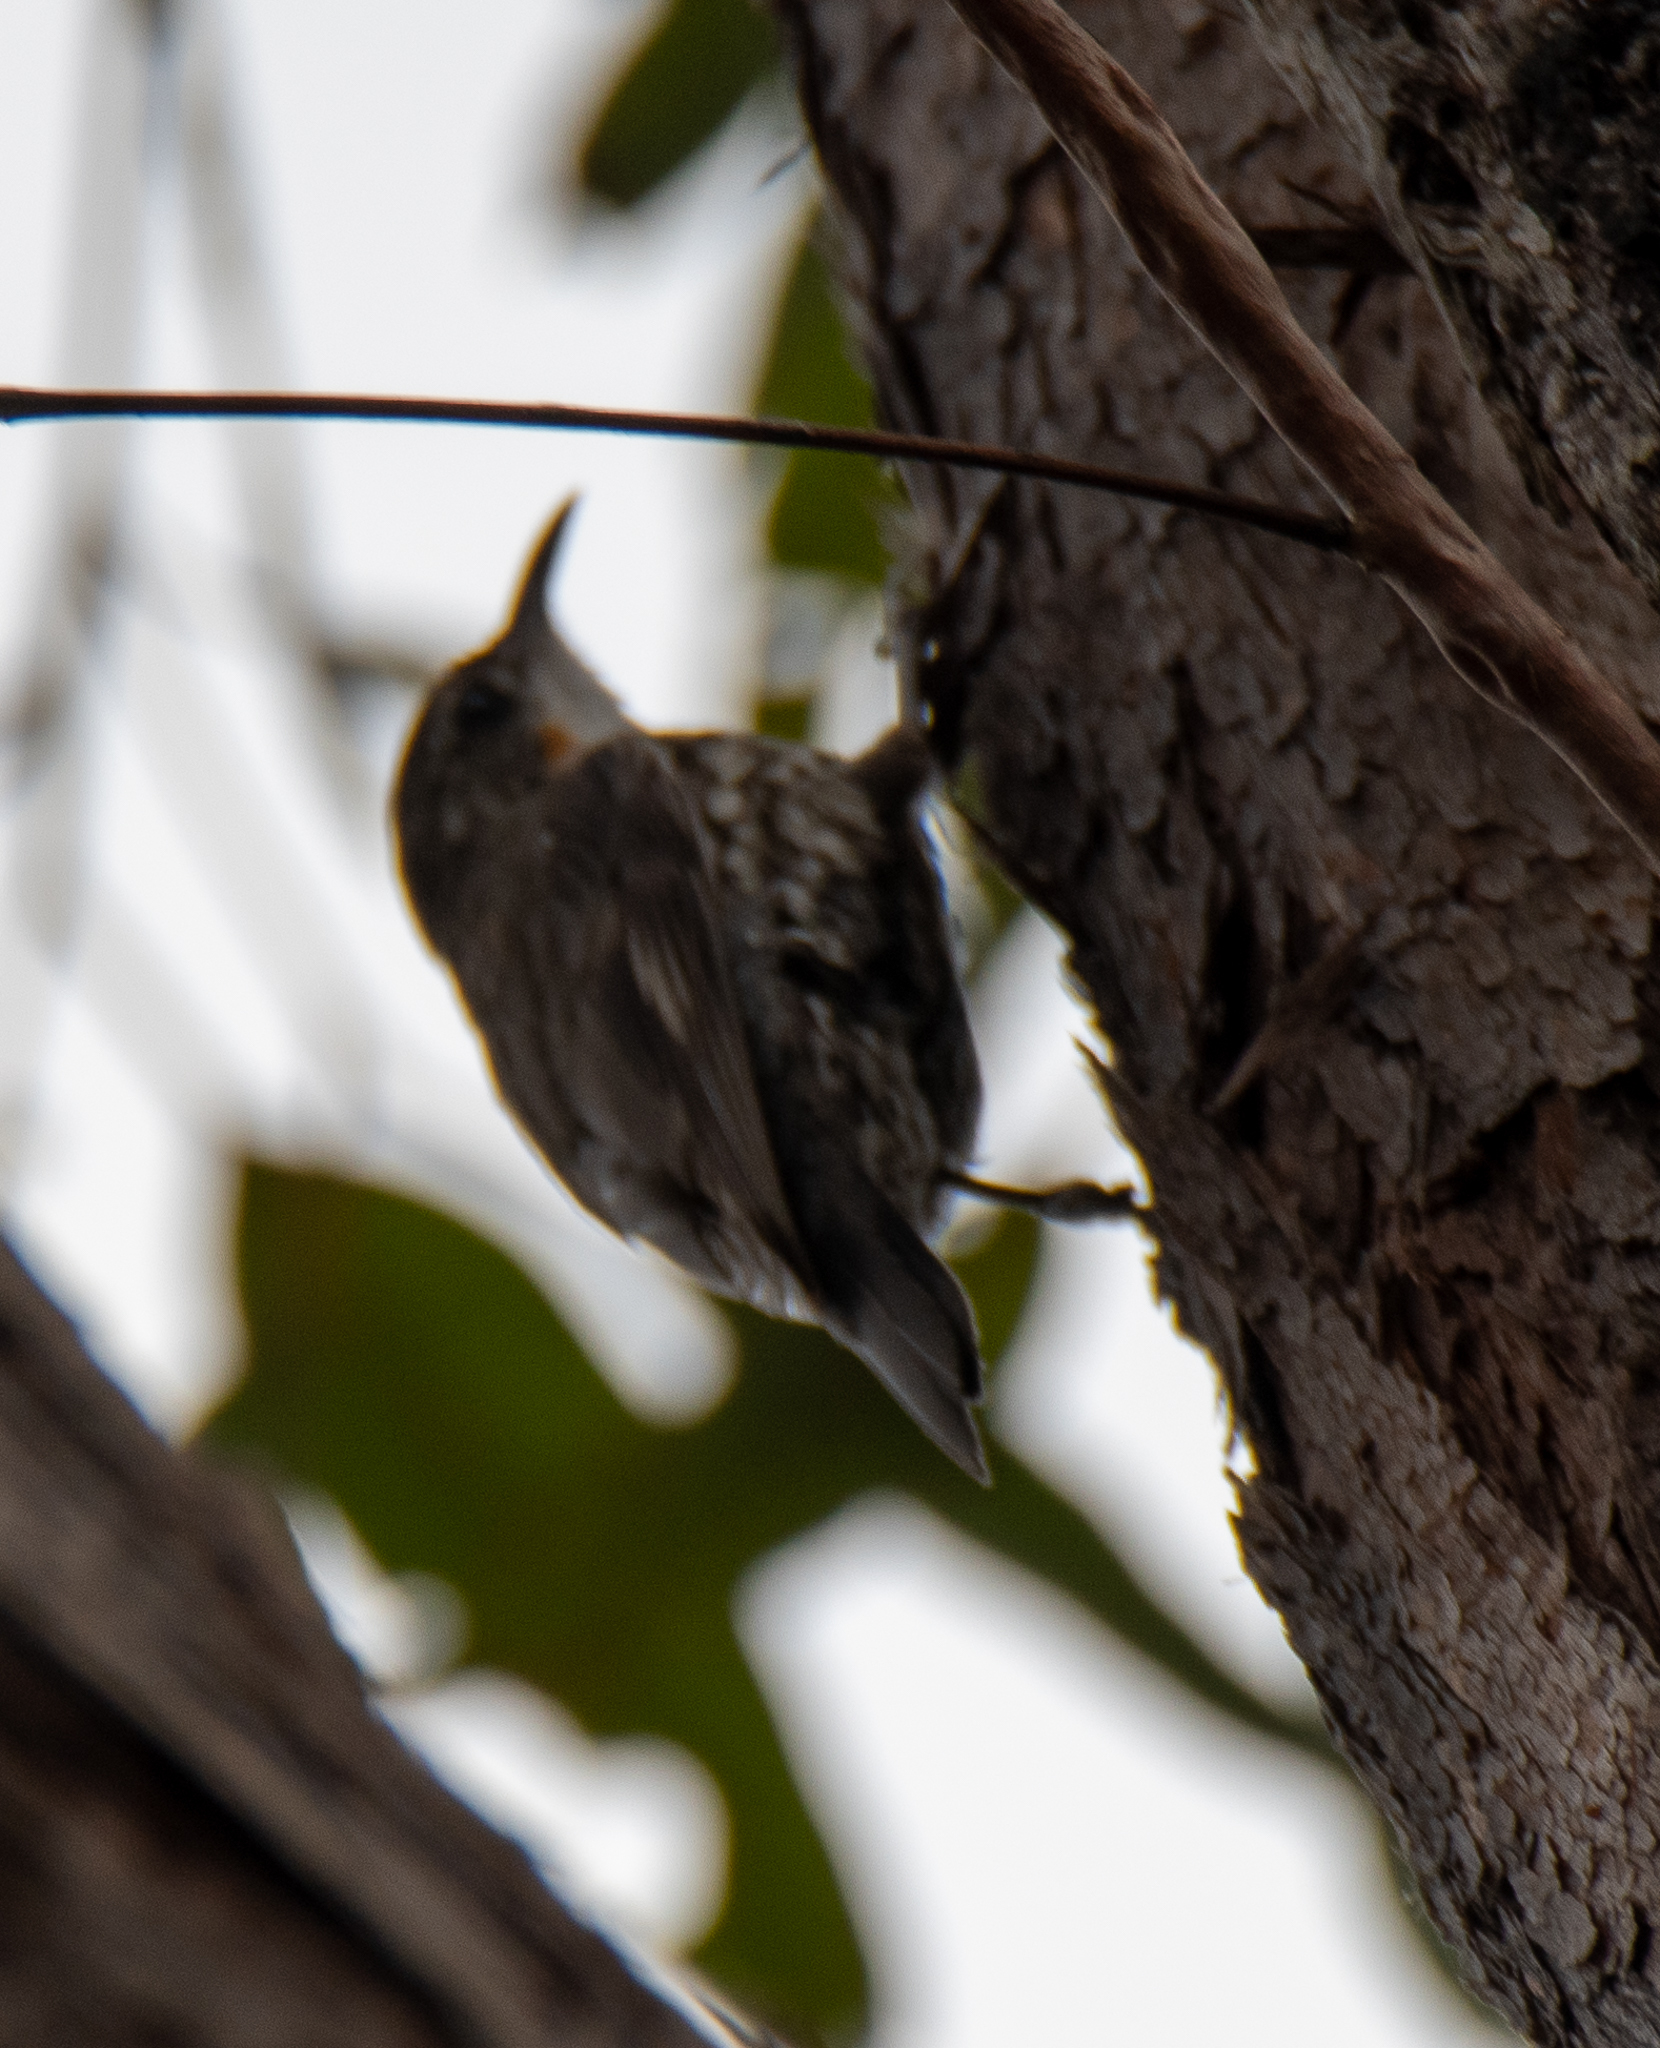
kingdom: Animalia
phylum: Chordata
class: Aves
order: Passeriformes
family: Climacteridae
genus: Cormobates
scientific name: Cormobates leucophaea
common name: White-throated treecreeper
